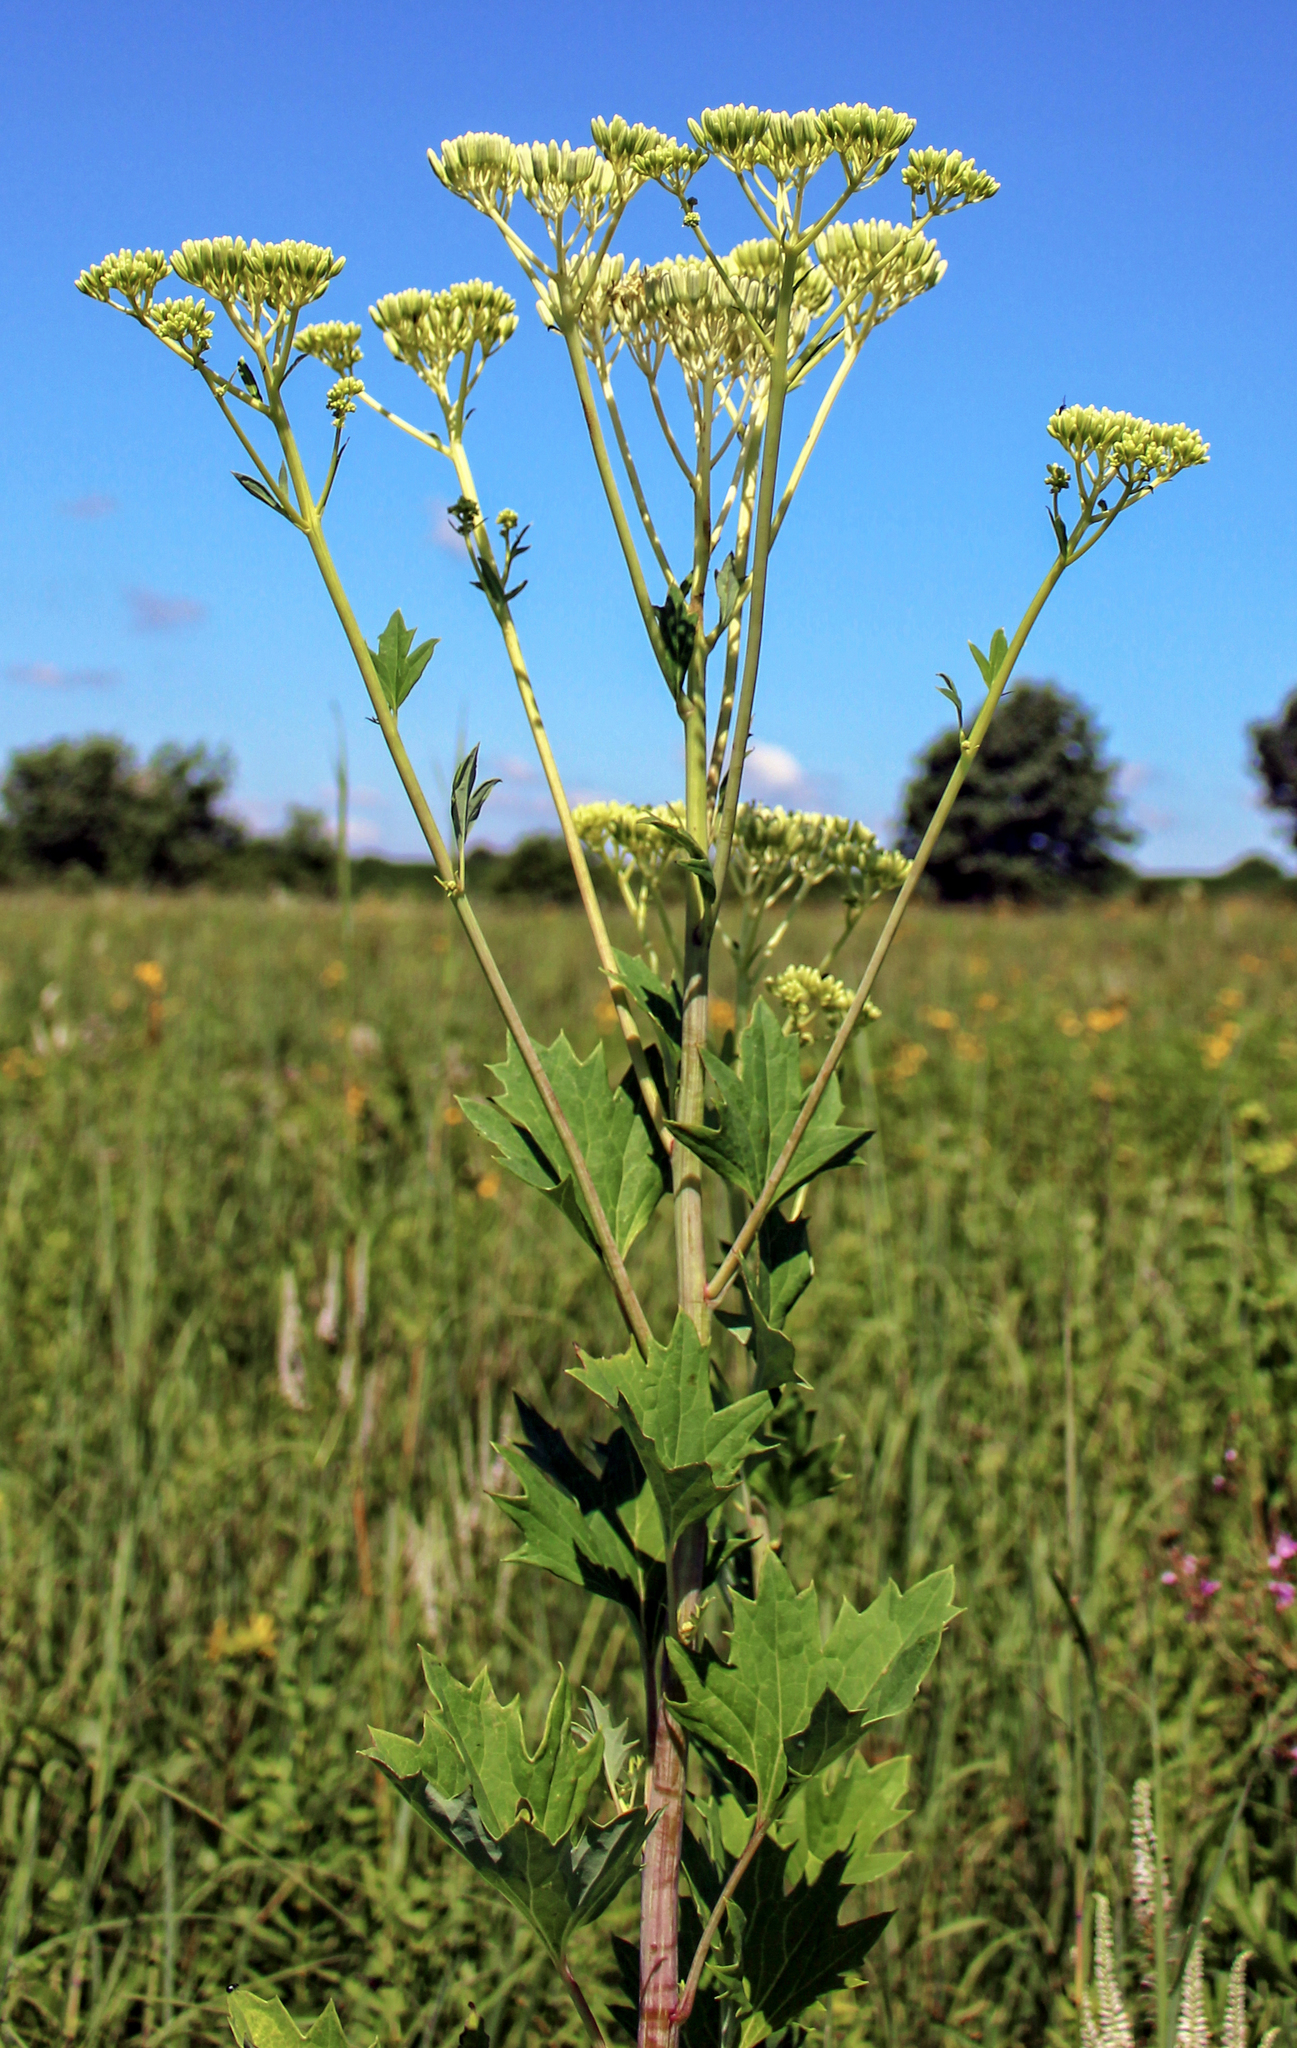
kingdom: Plantae
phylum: Tracheophyta
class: Magnoliopsida
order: Asterales
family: Asteraceae
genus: Arnoglossum
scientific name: Arnoglossum atriplicifolium
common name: Pale indian-plantain
